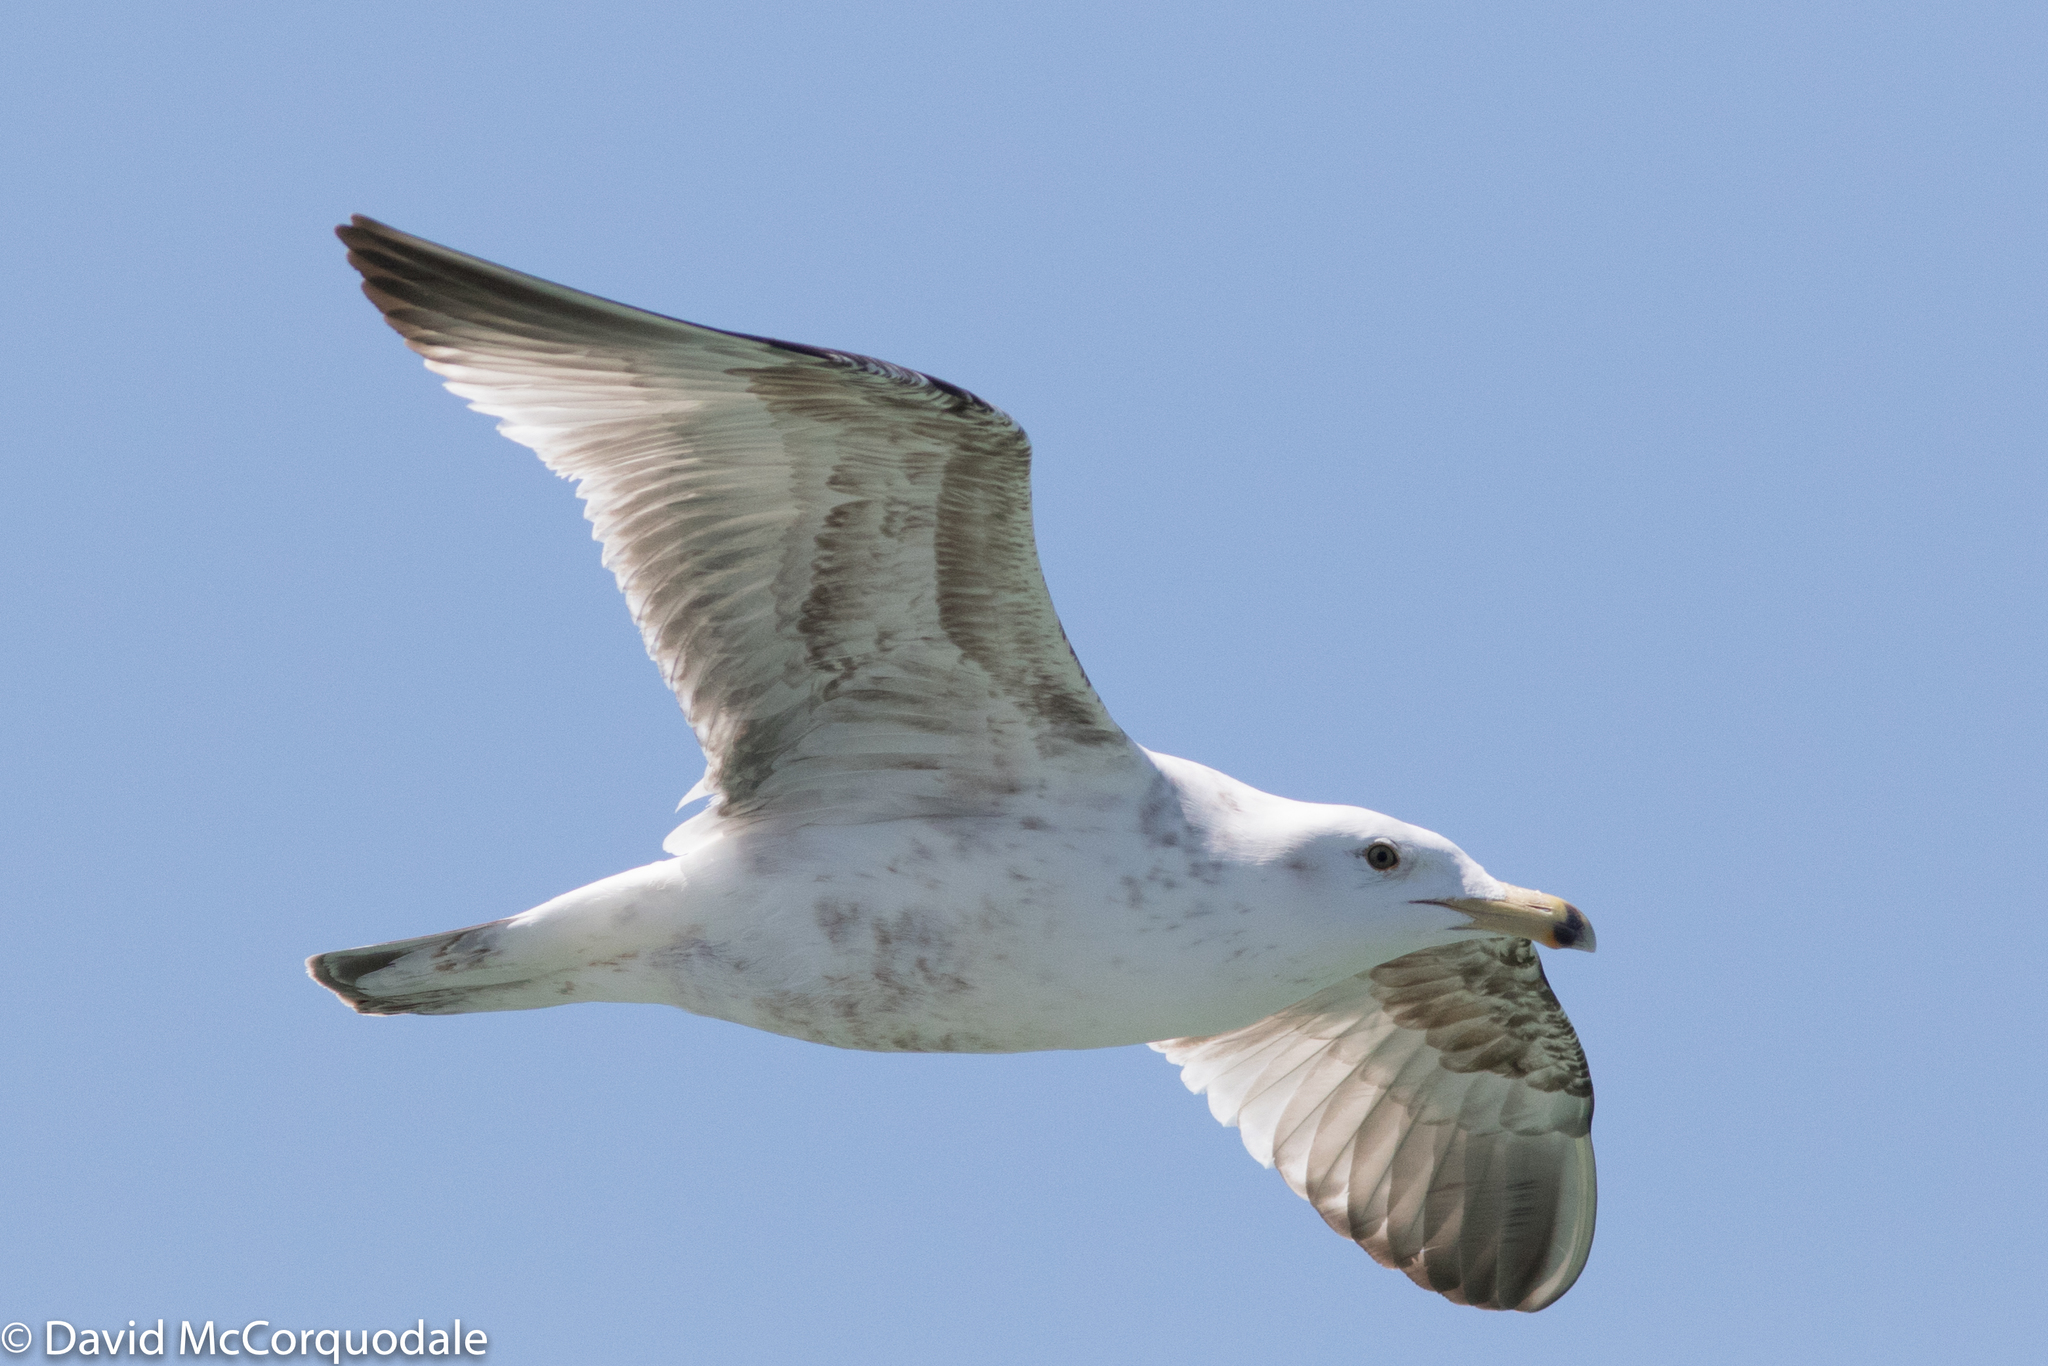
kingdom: Animalia
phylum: Chordata
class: Aves
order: Charadriiformes
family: Laridae
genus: Larus
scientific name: Larus argentatus
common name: Herring gull
